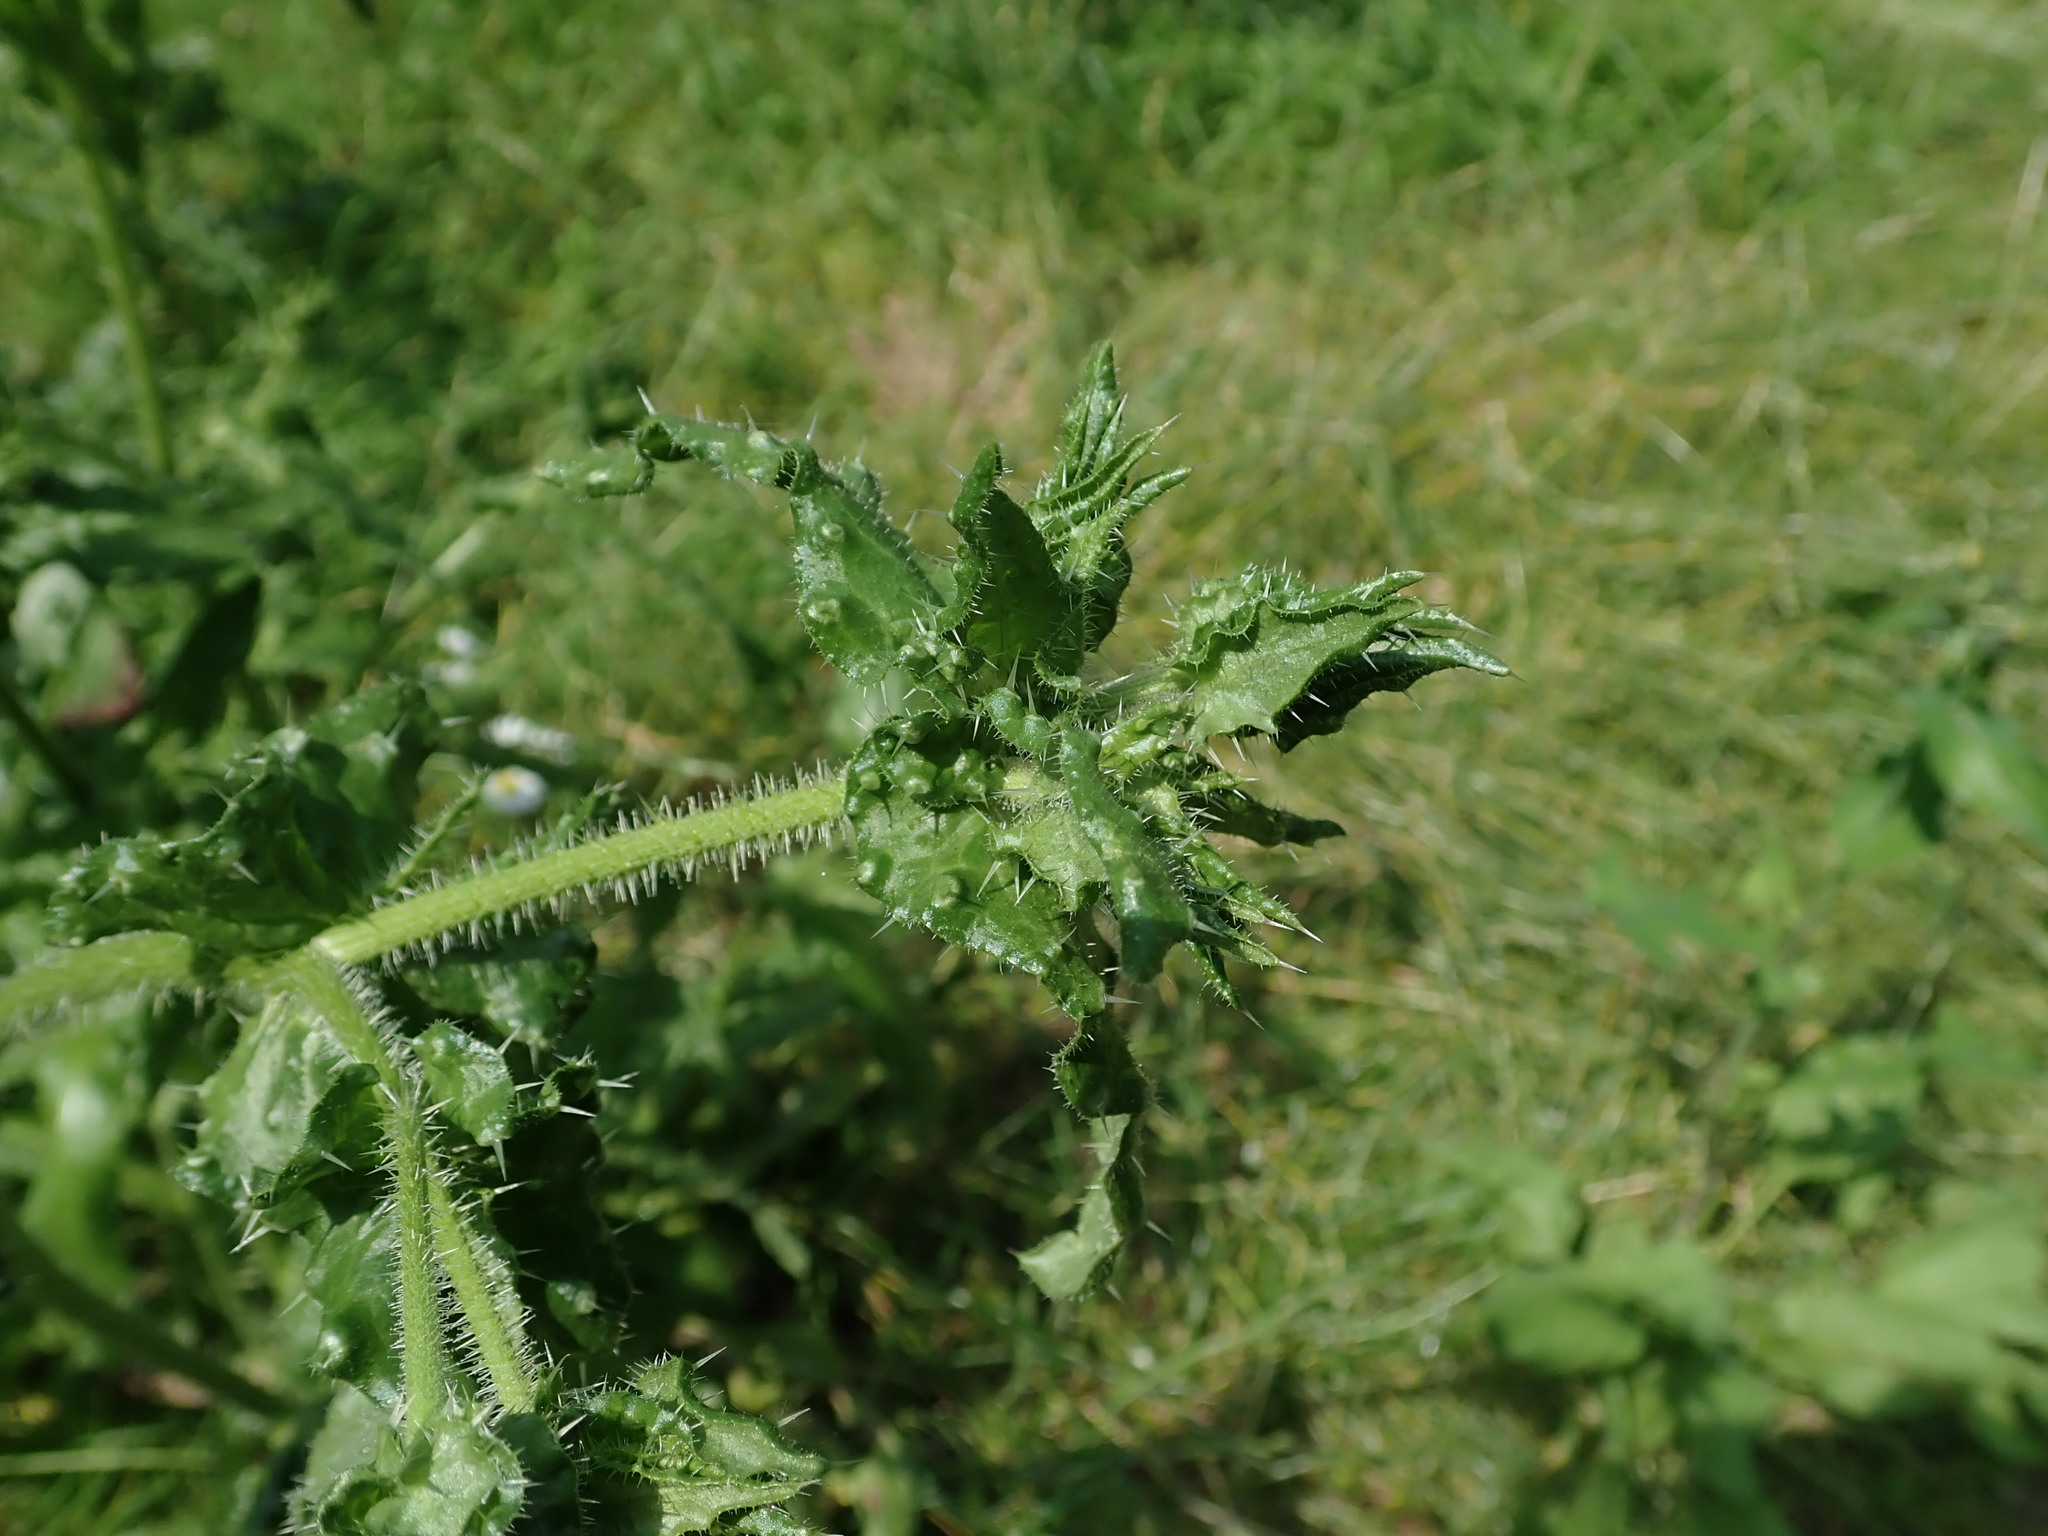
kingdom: Plantae
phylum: Tracheophyta
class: Magnoliopsida
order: Asterales
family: Asteraceae
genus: Helminthotheca
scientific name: Helminthotheca echioides
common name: Ox-tongue
